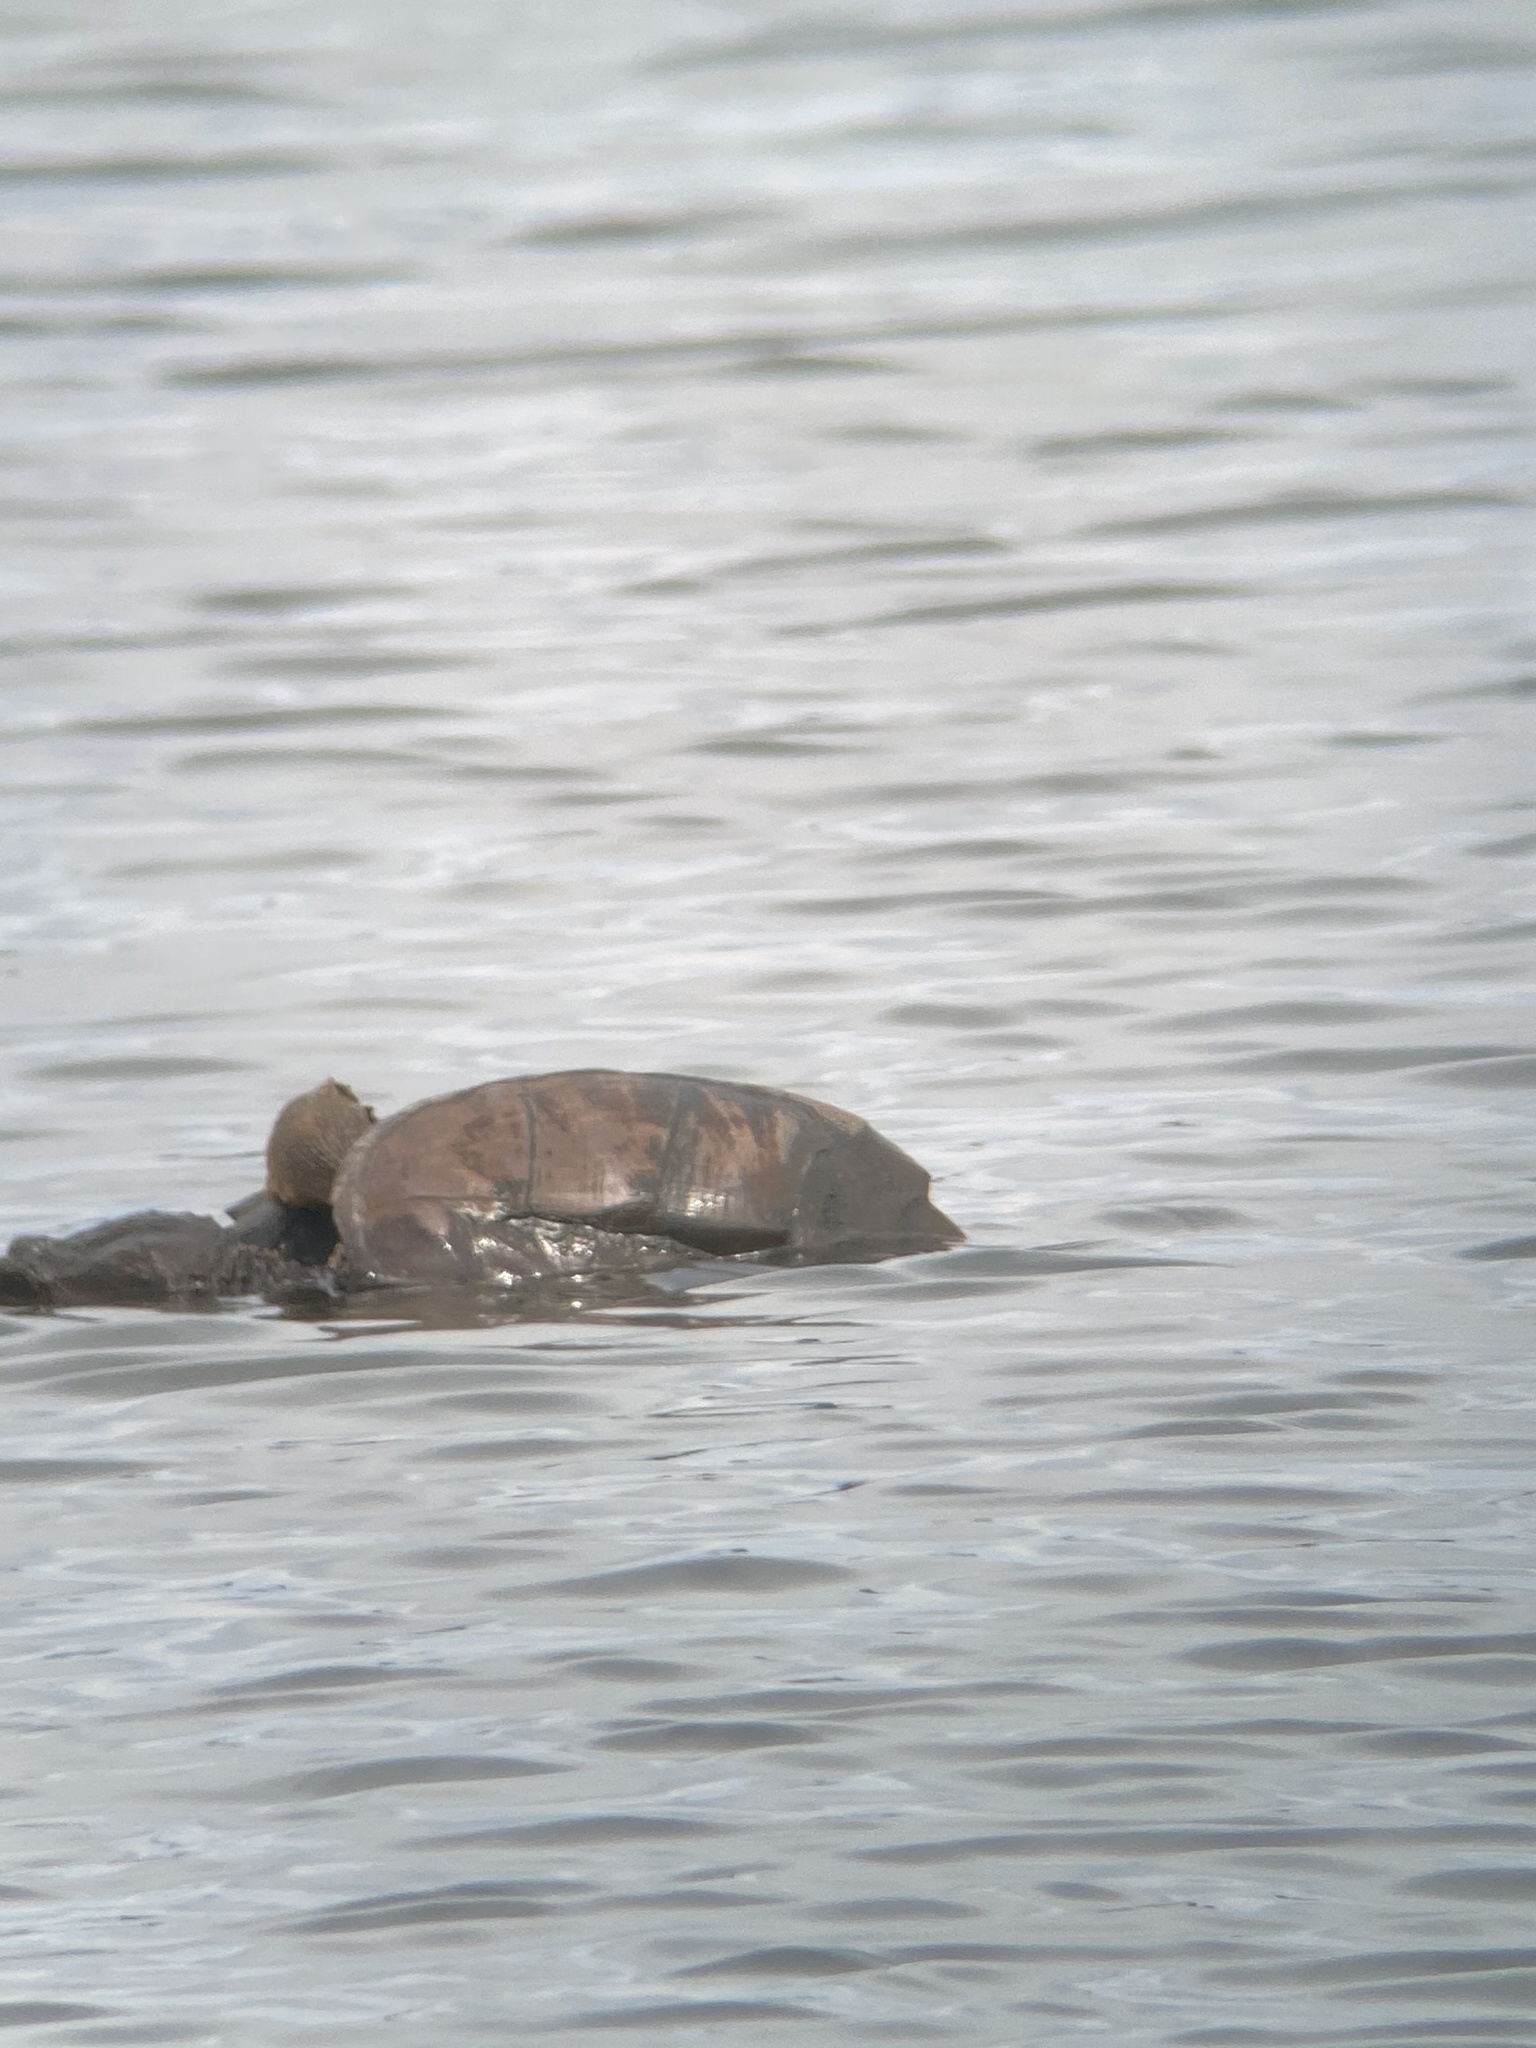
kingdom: Animalia
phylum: Chordata
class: Testudines
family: Chelydridae
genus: Chelydra
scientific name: Chelydra serpentina
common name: Common snapping turtle
